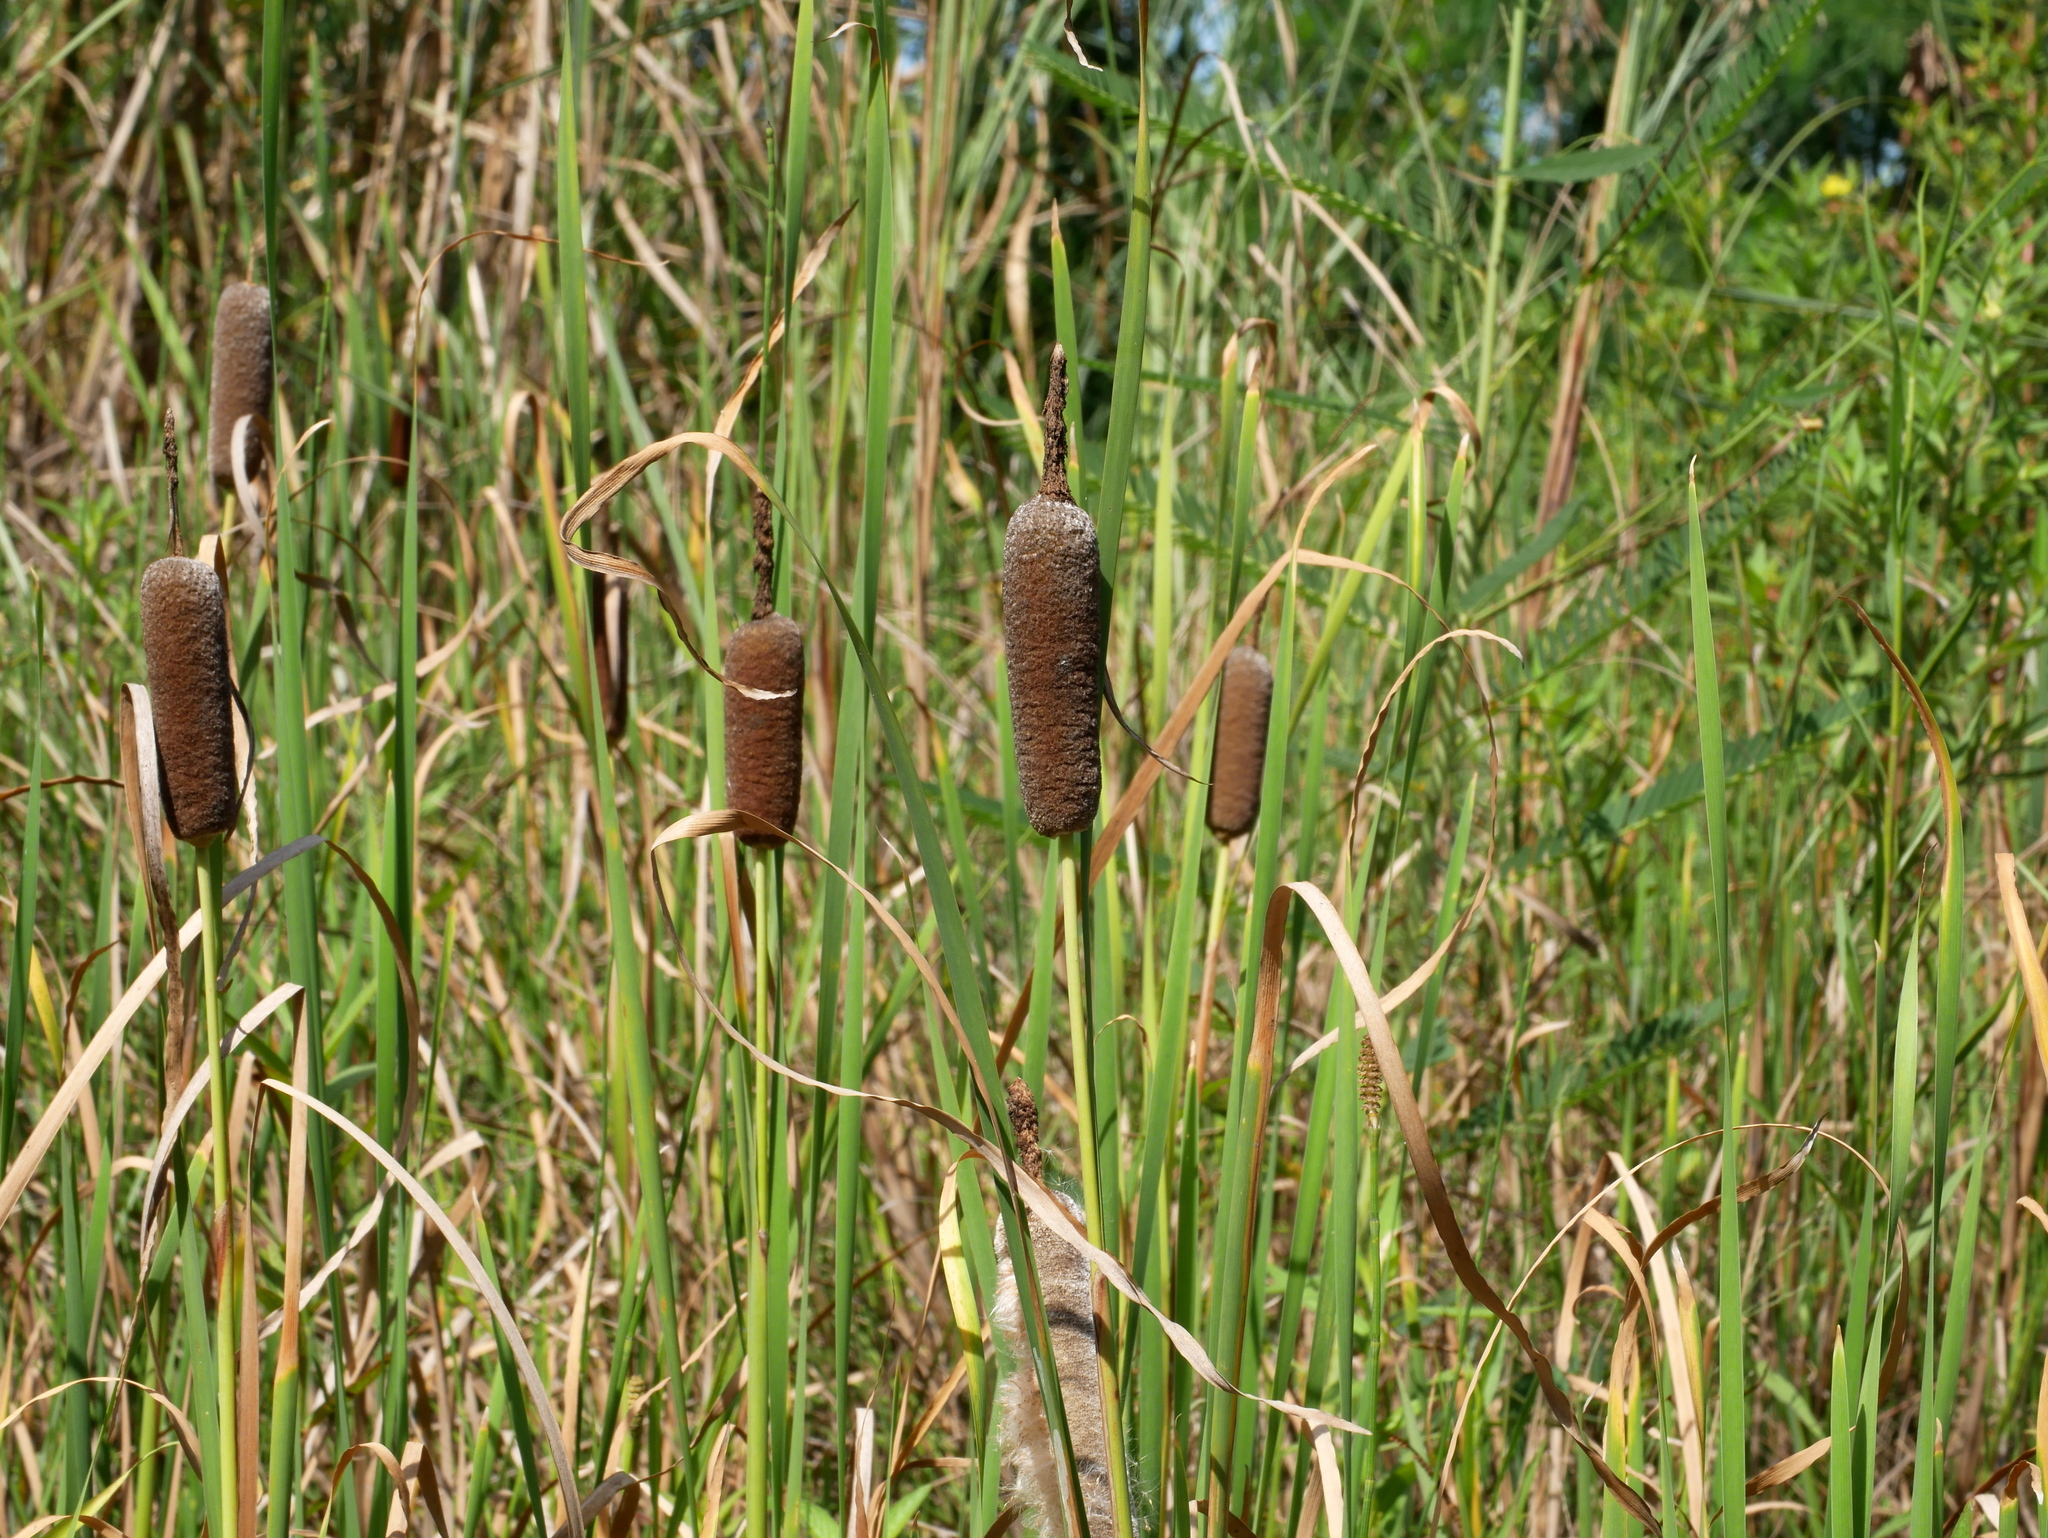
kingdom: Plantae
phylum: Tracheophyta
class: Liliopsida
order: Poales
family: Typhaceae
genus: Typha
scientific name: Typha orientalis
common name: Bullrush
